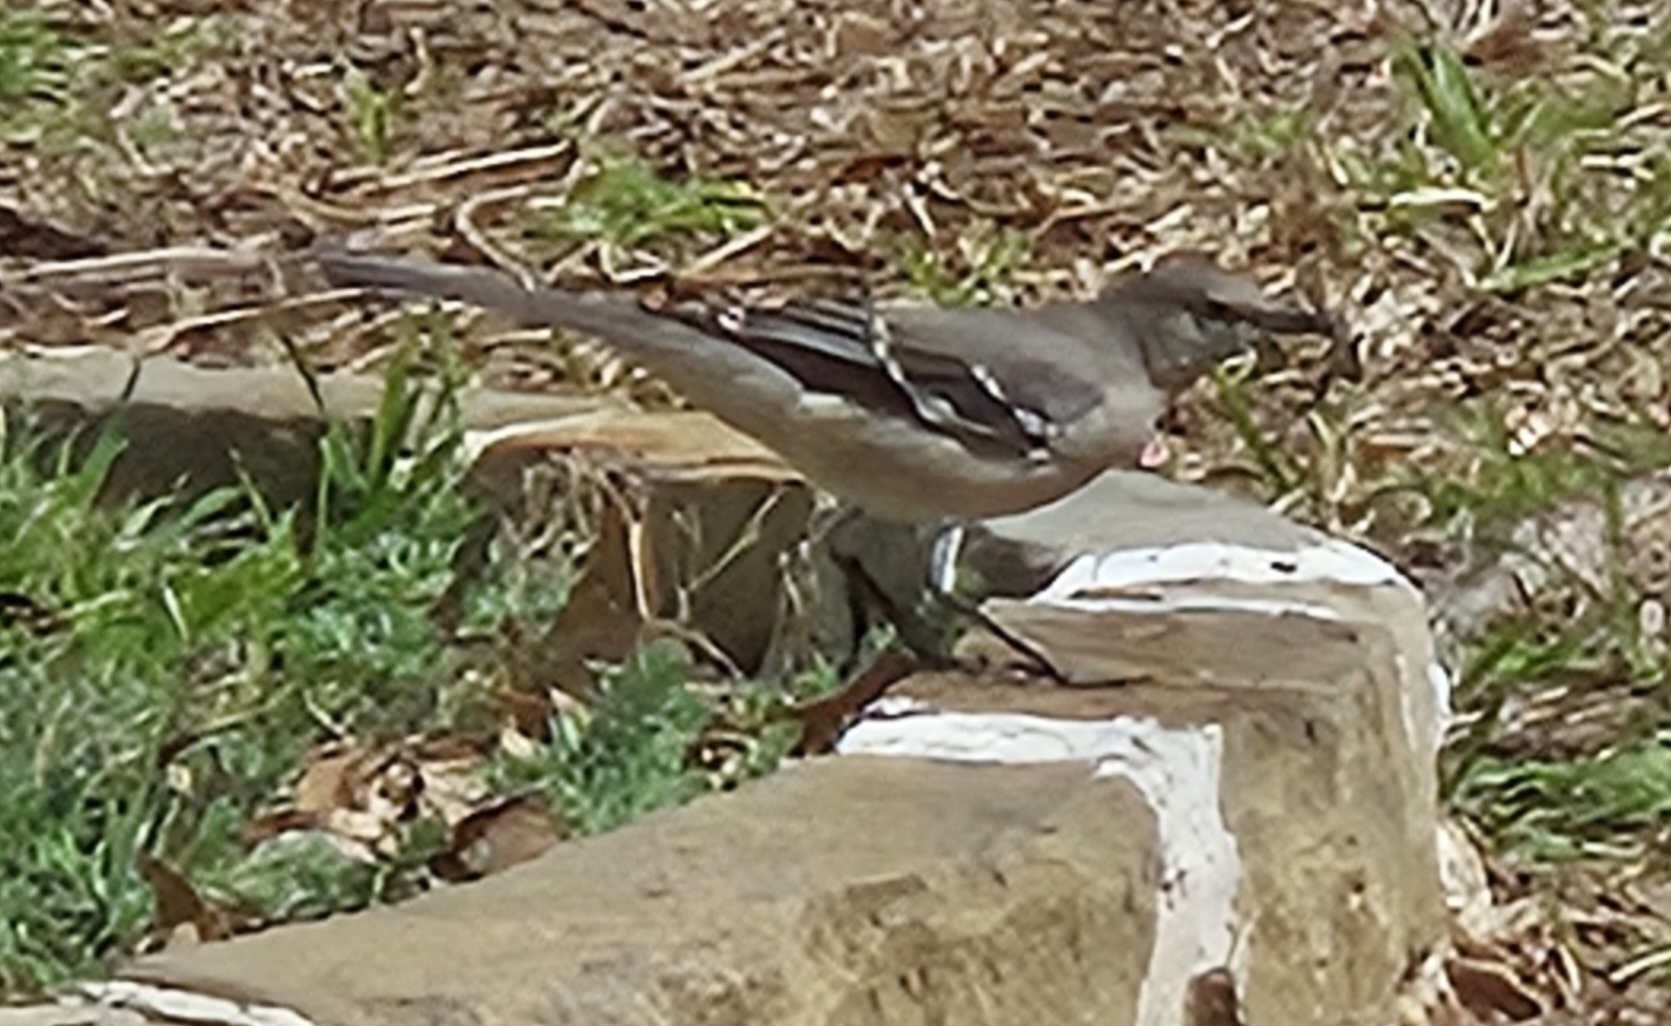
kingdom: Animalia
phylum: Chordata
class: Aves
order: Passeriformes
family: Mimidae
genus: Mimus
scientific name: Mimus polyglottos
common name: Northern mockingbird
